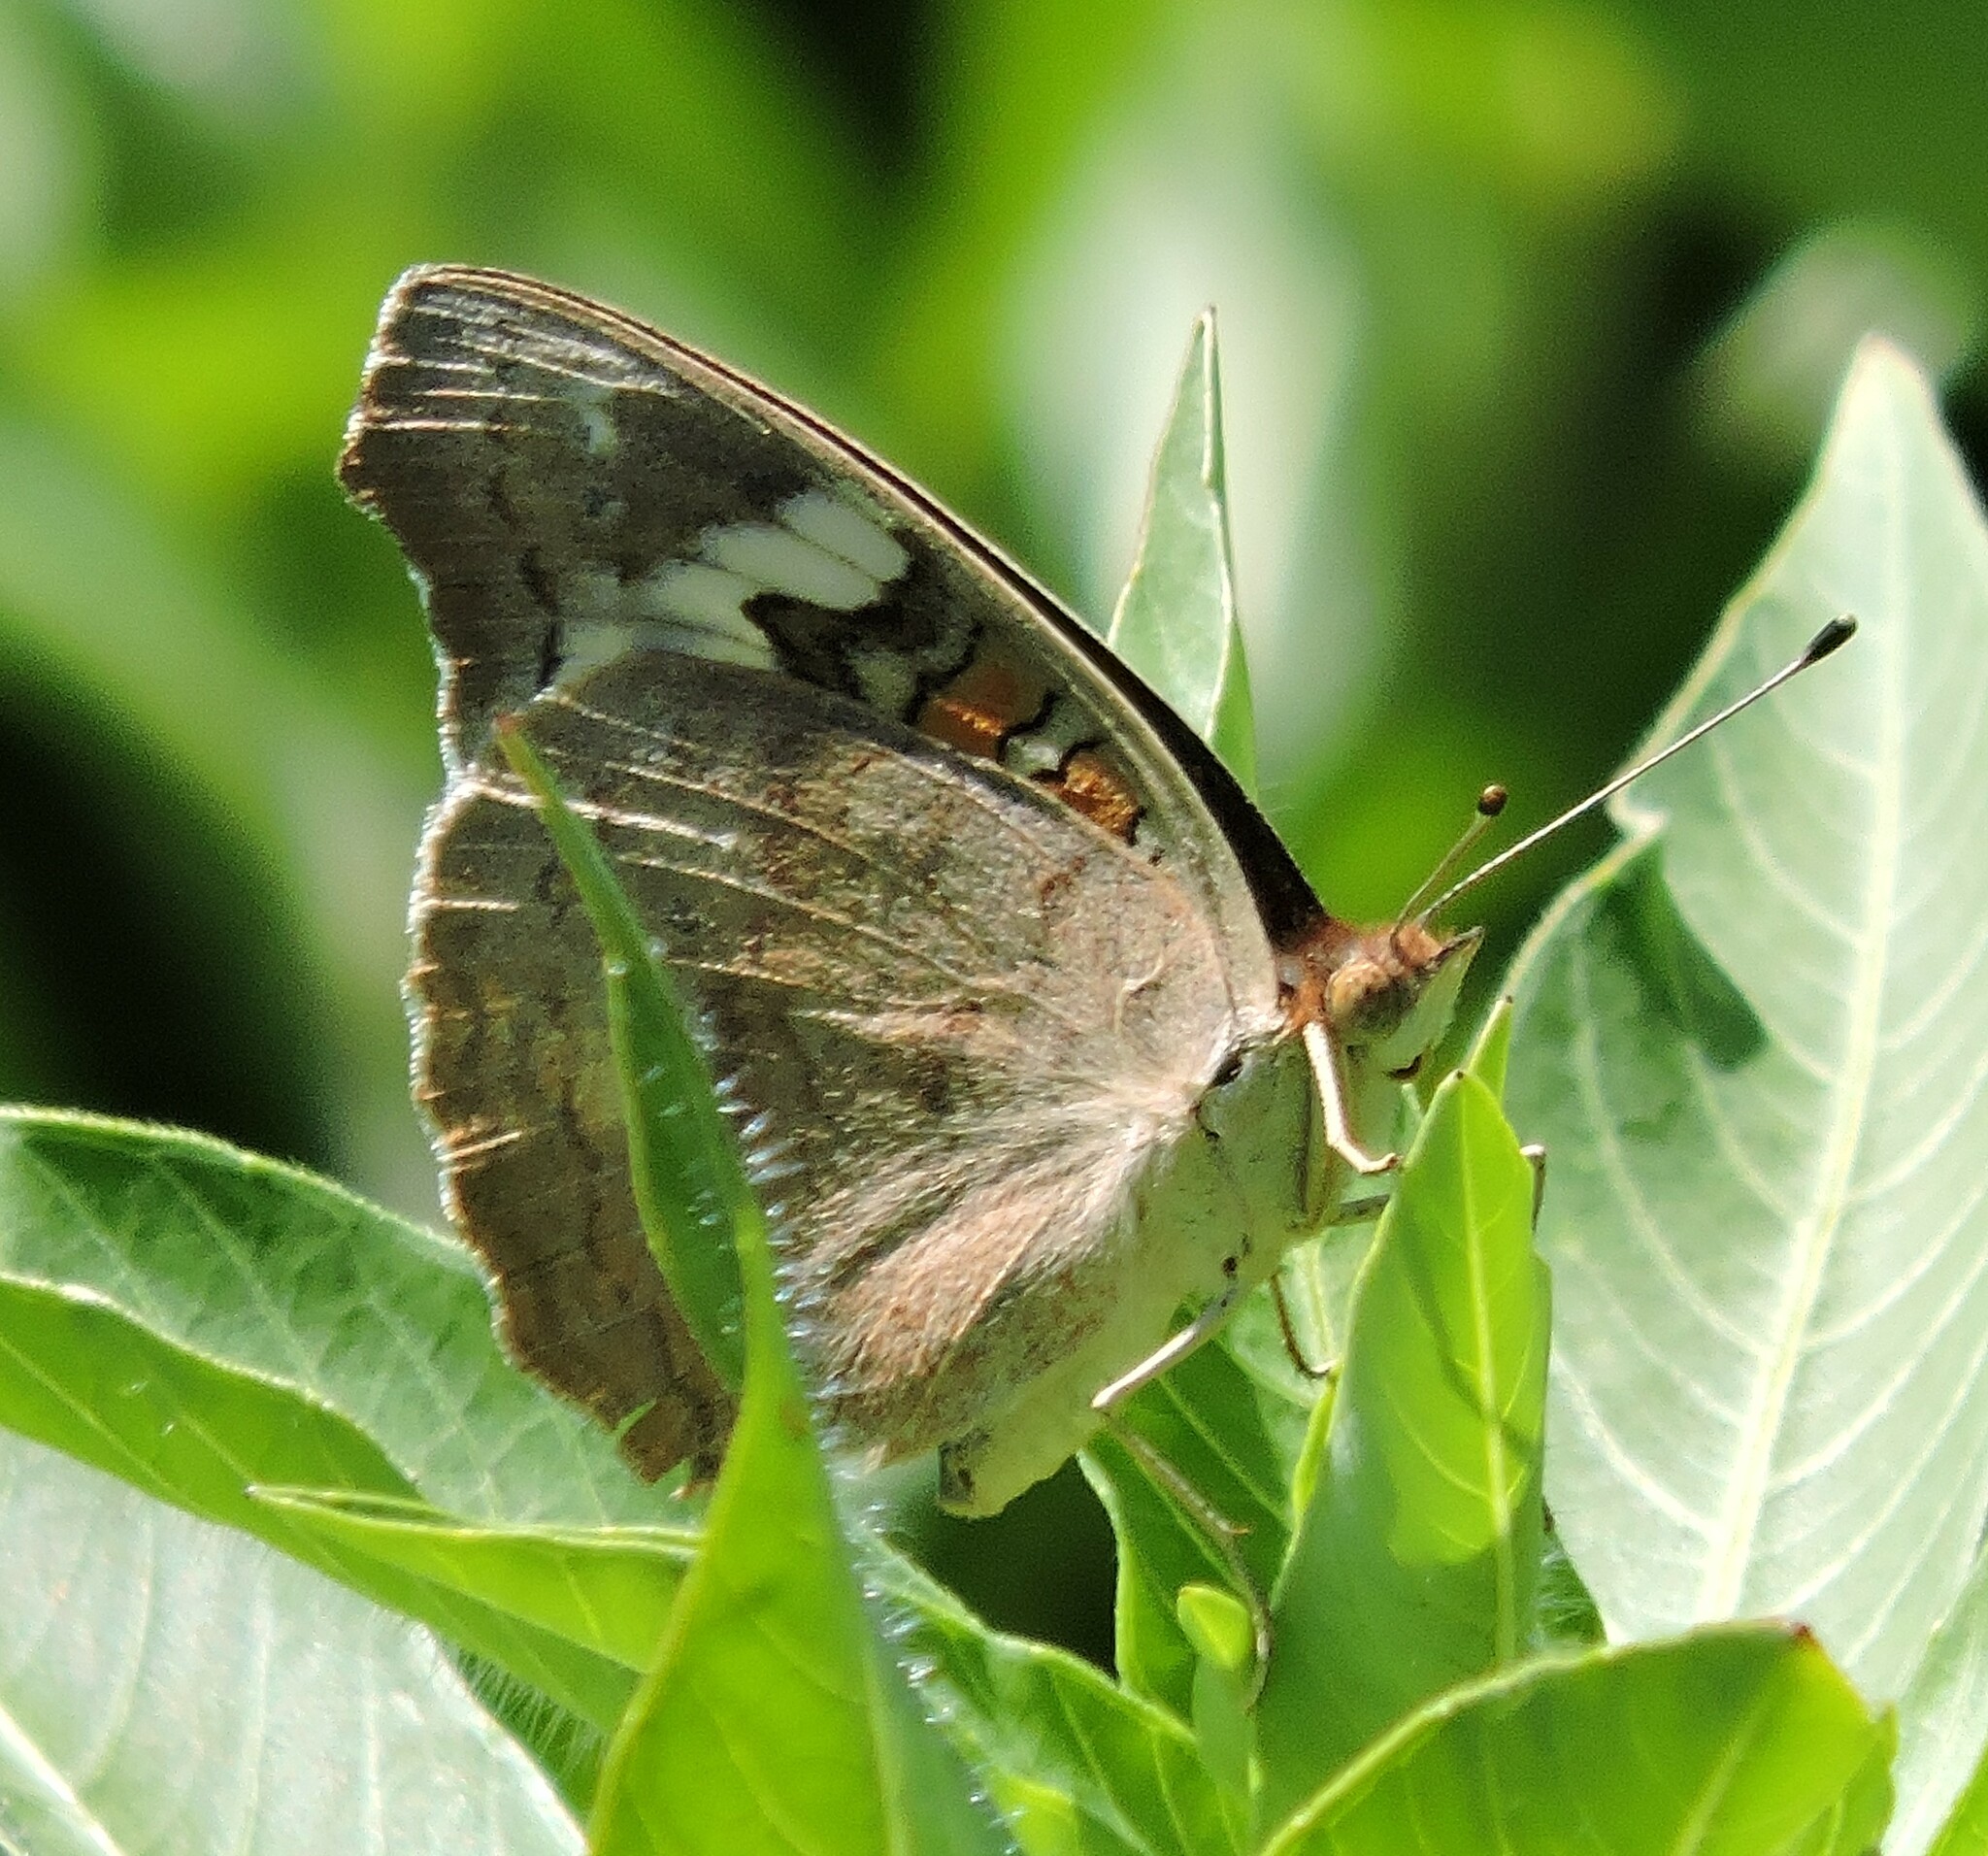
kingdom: Animalia
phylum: Arthropoda
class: Insecta
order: Lepidoptera
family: Nymphalidae
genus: Junonia
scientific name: Junonia grisea
